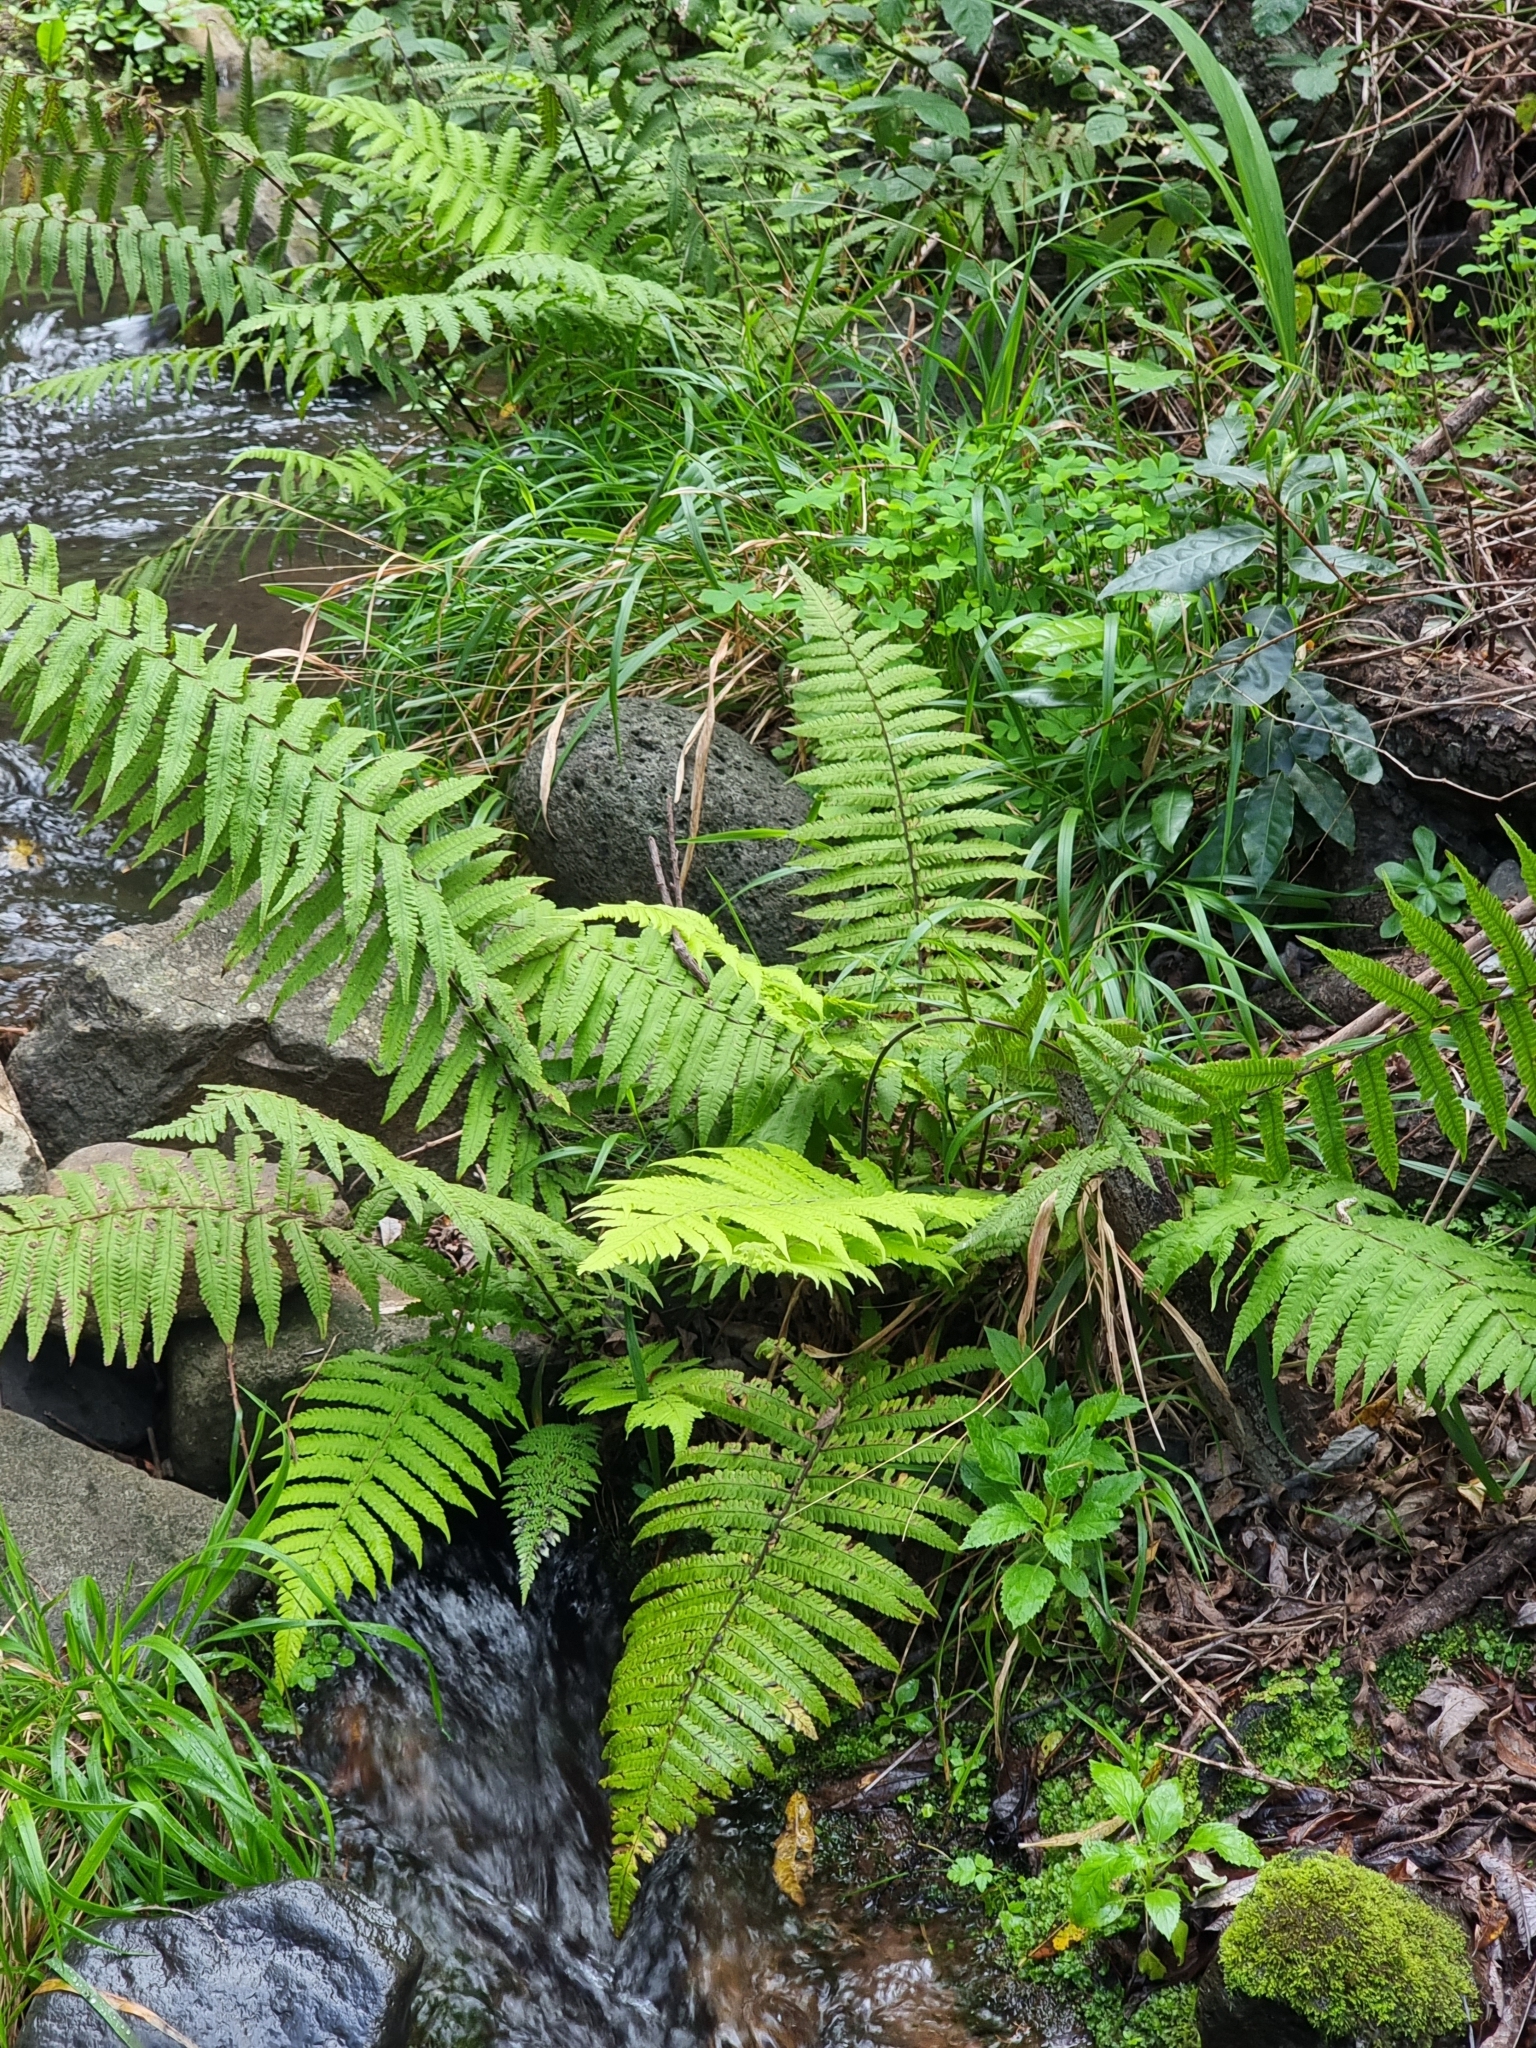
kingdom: Plantae
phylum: Tracheophyta
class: Polypodiopsida
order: Polypodiales
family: Thelypteridaceae
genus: Christella
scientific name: Christella dentata
